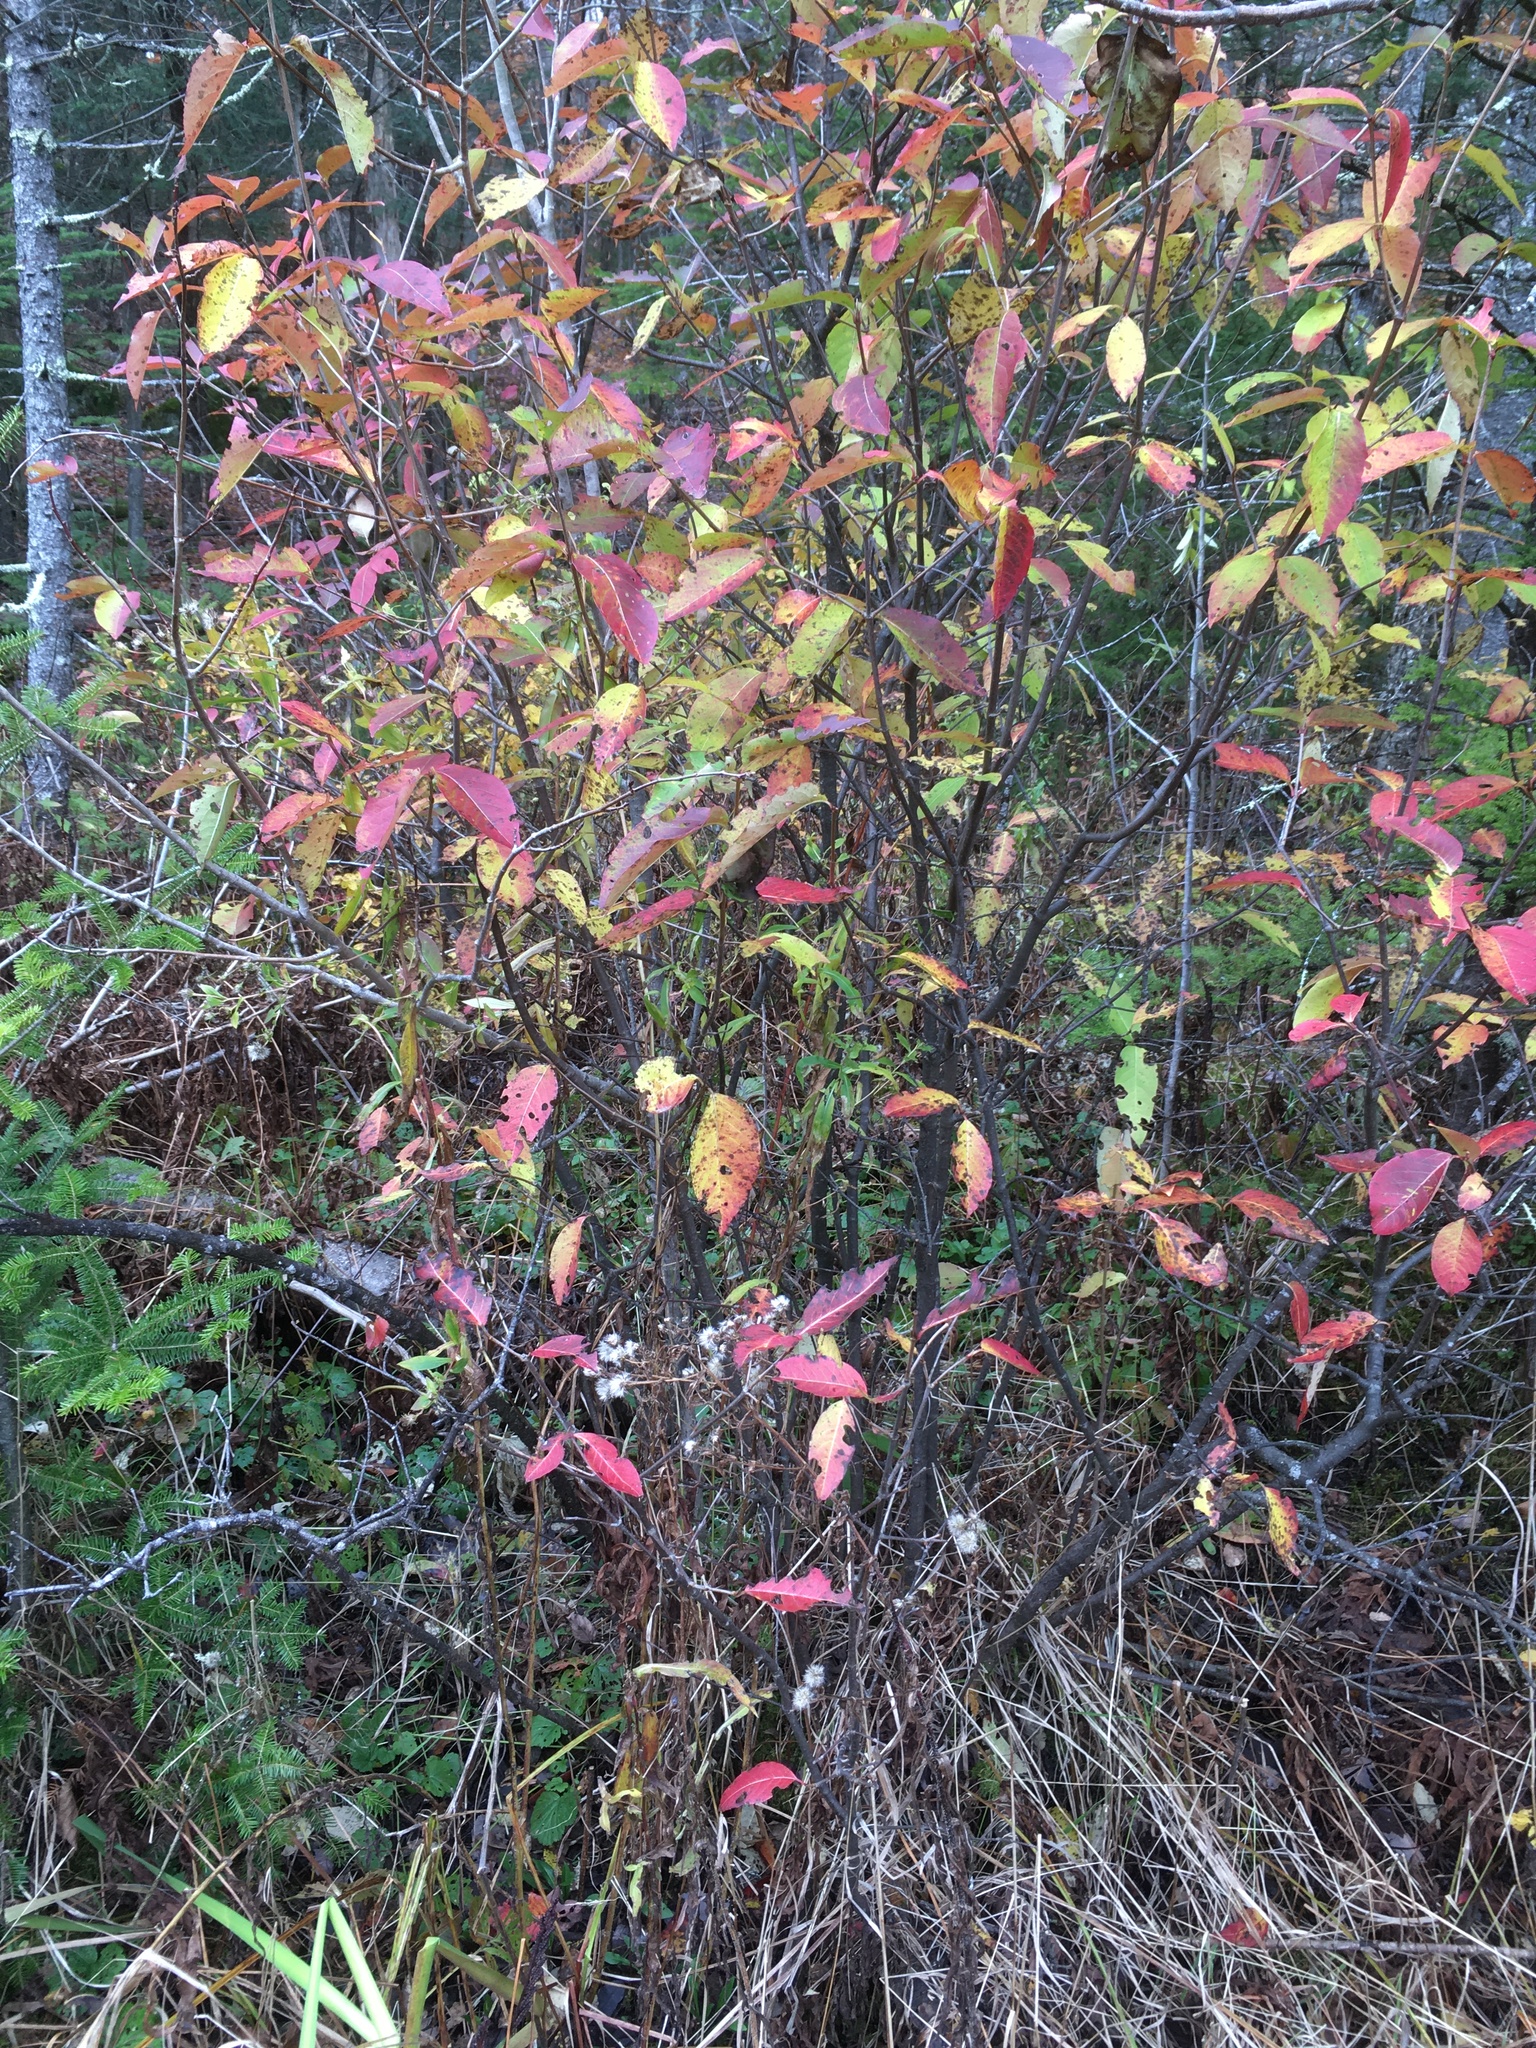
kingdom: Plantae
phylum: Tracheophyta
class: Magnoliopsida
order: Dipsacales
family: Viburnaceae
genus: Viburnum
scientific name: Viburnum cassinoides
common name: Swamp haw
